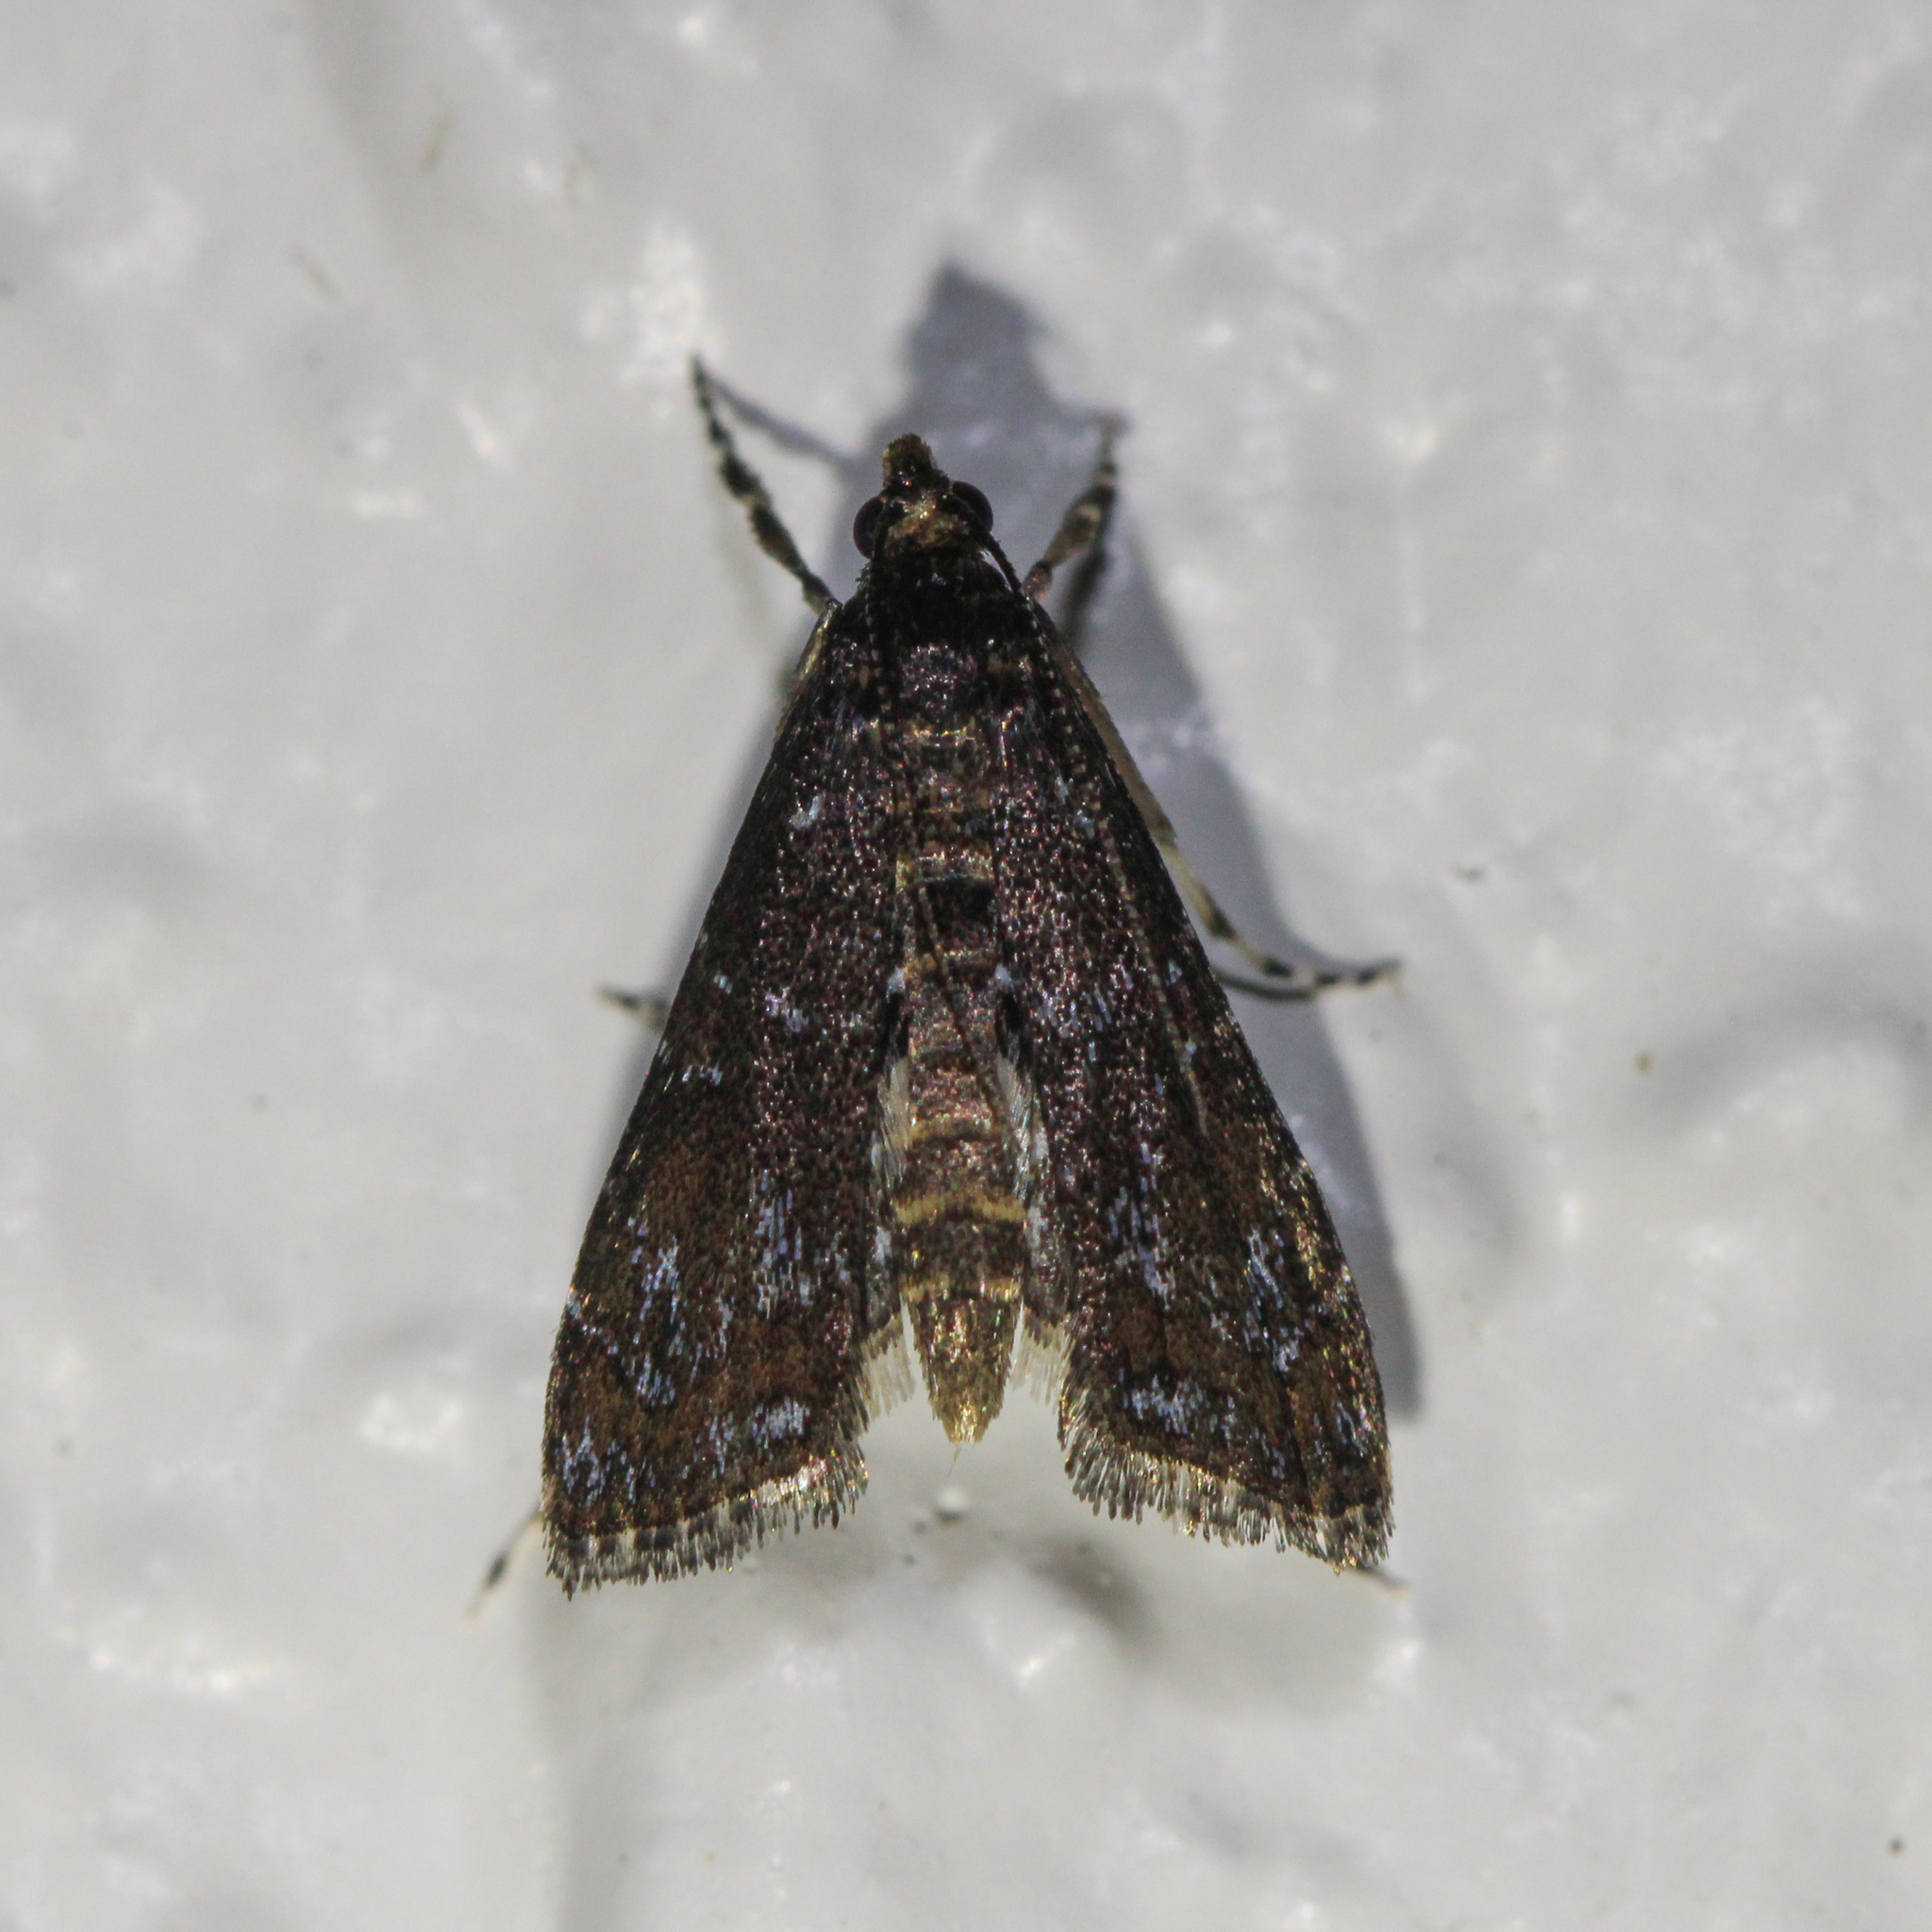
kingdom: Animalia
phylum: Arthropoda
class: Insecta
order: Lepidoptera
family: Crambidae
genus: Langessa
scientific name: Langessa nomophilalis
